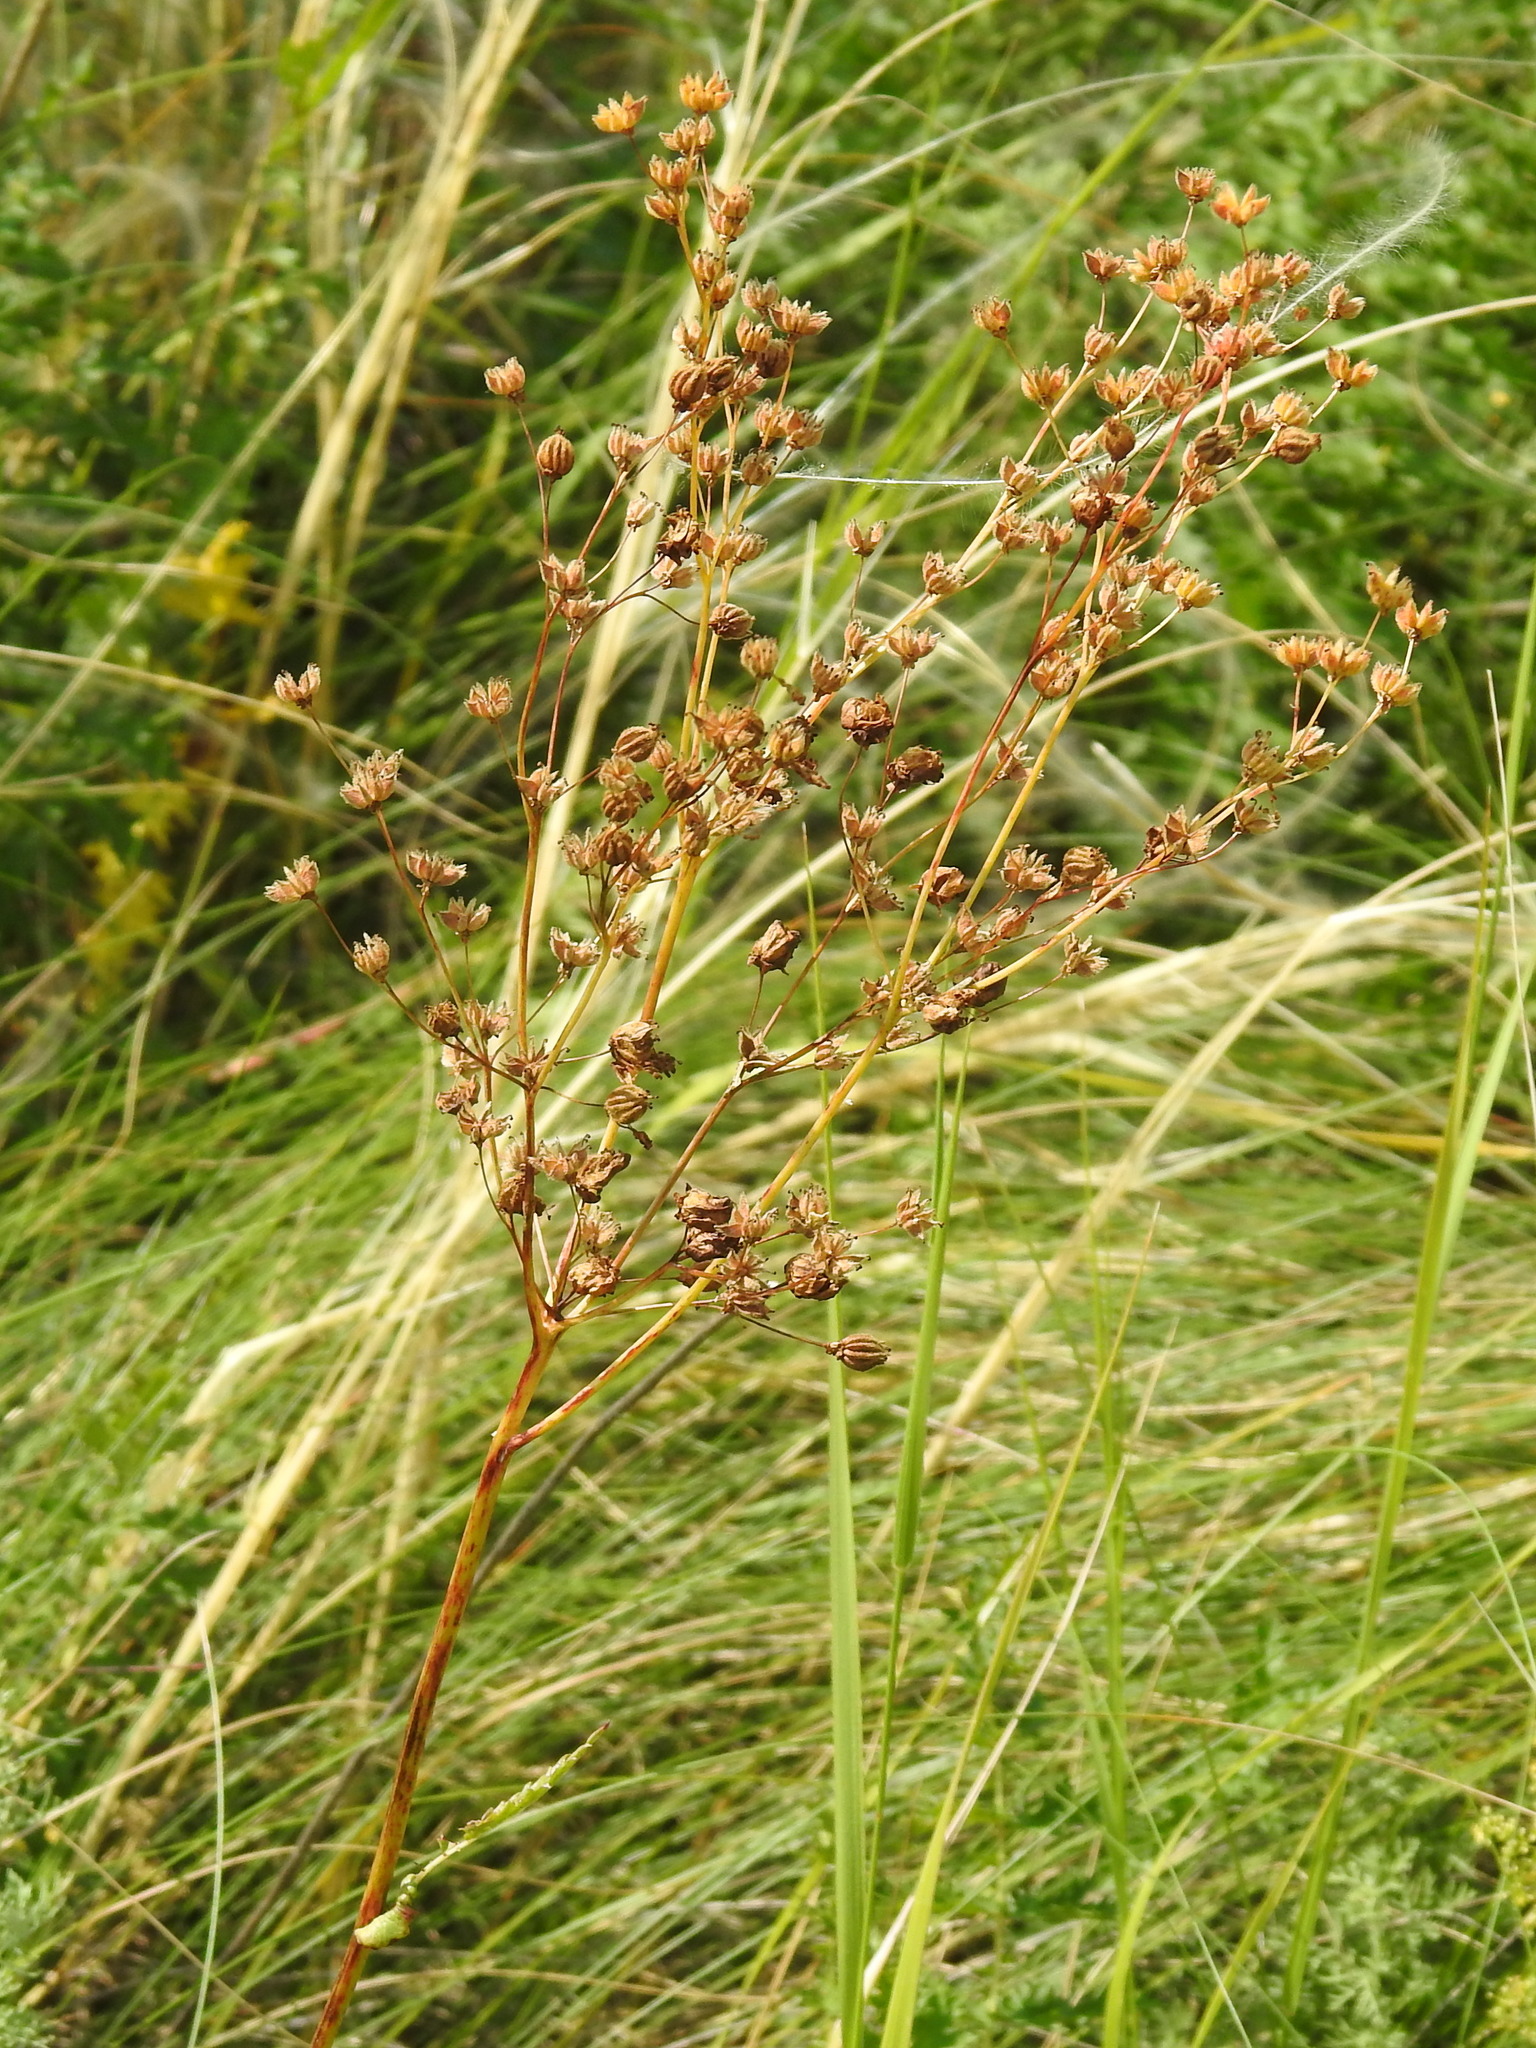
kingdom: Plantae
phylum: Tracheophyta
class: Magnoliopsida
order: Rosales
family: Rosaceae
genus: Filipendula
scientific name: Filipendula vulgaris
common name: Dropwort
